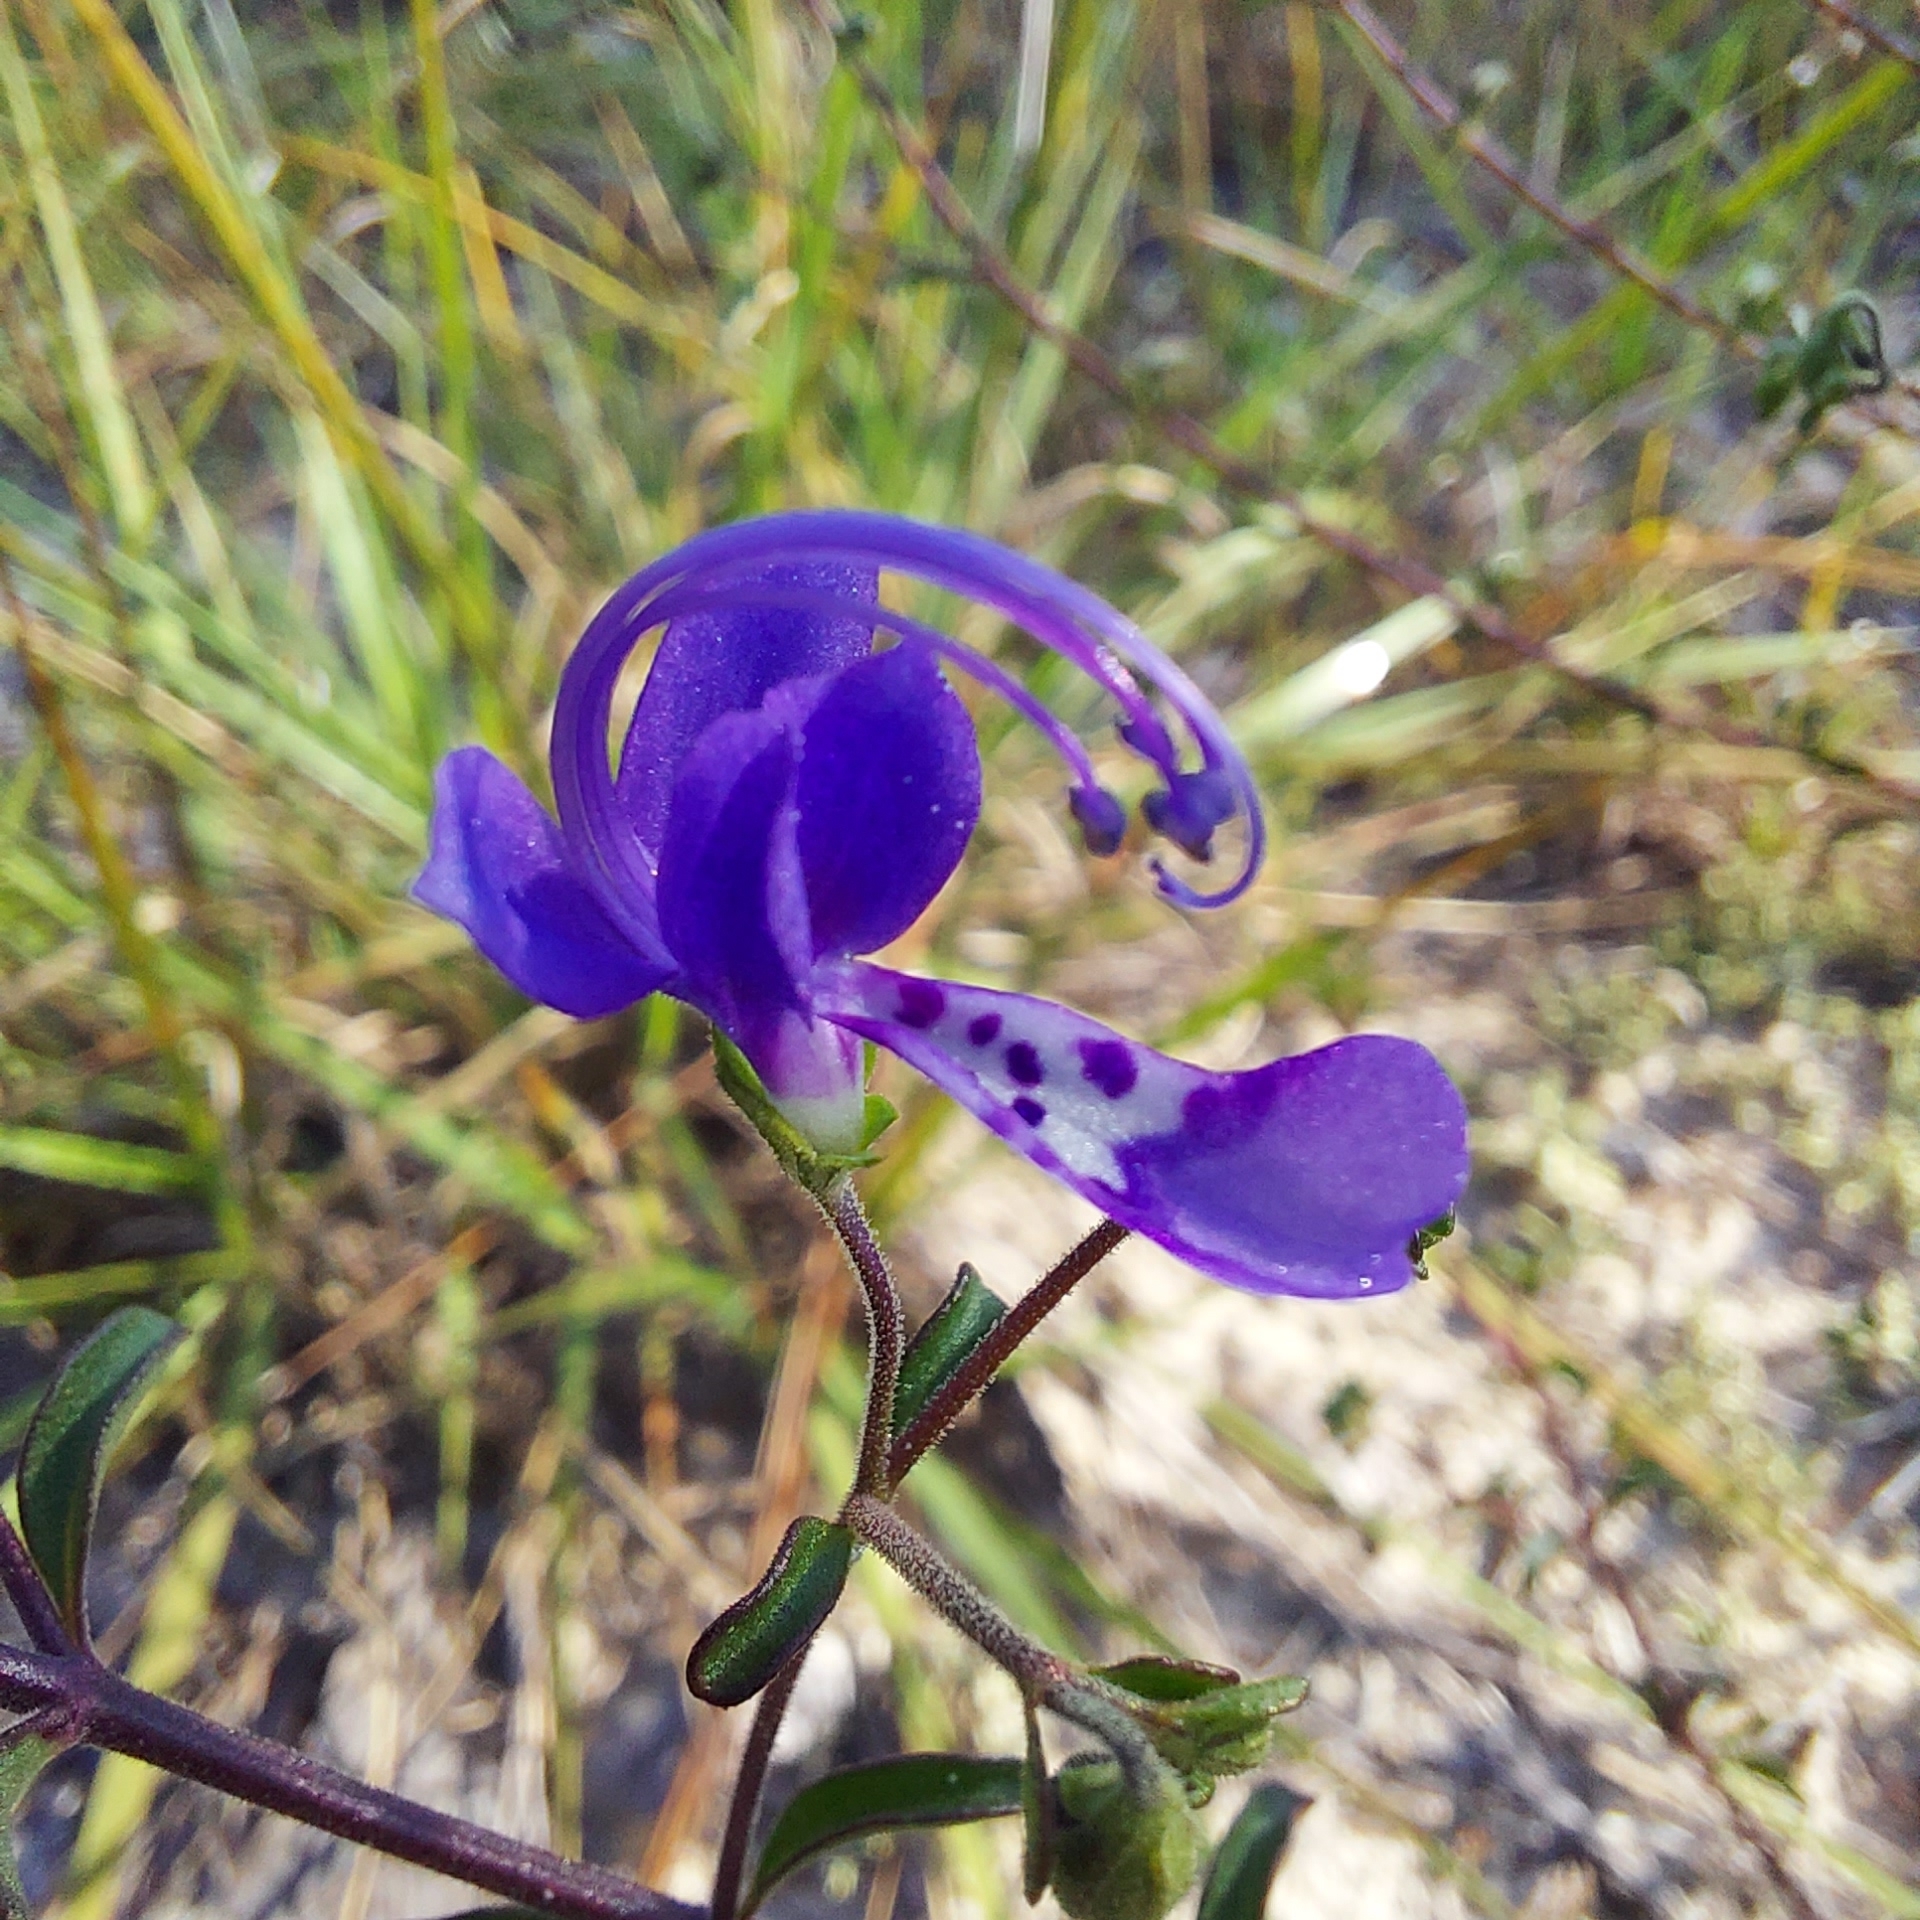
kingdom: Plantae
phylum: Tracheophyta
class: Magnoliopsida
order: Lamiales
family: Lamiaceae
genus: Trichostema
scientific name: Trichostema microphyllum
